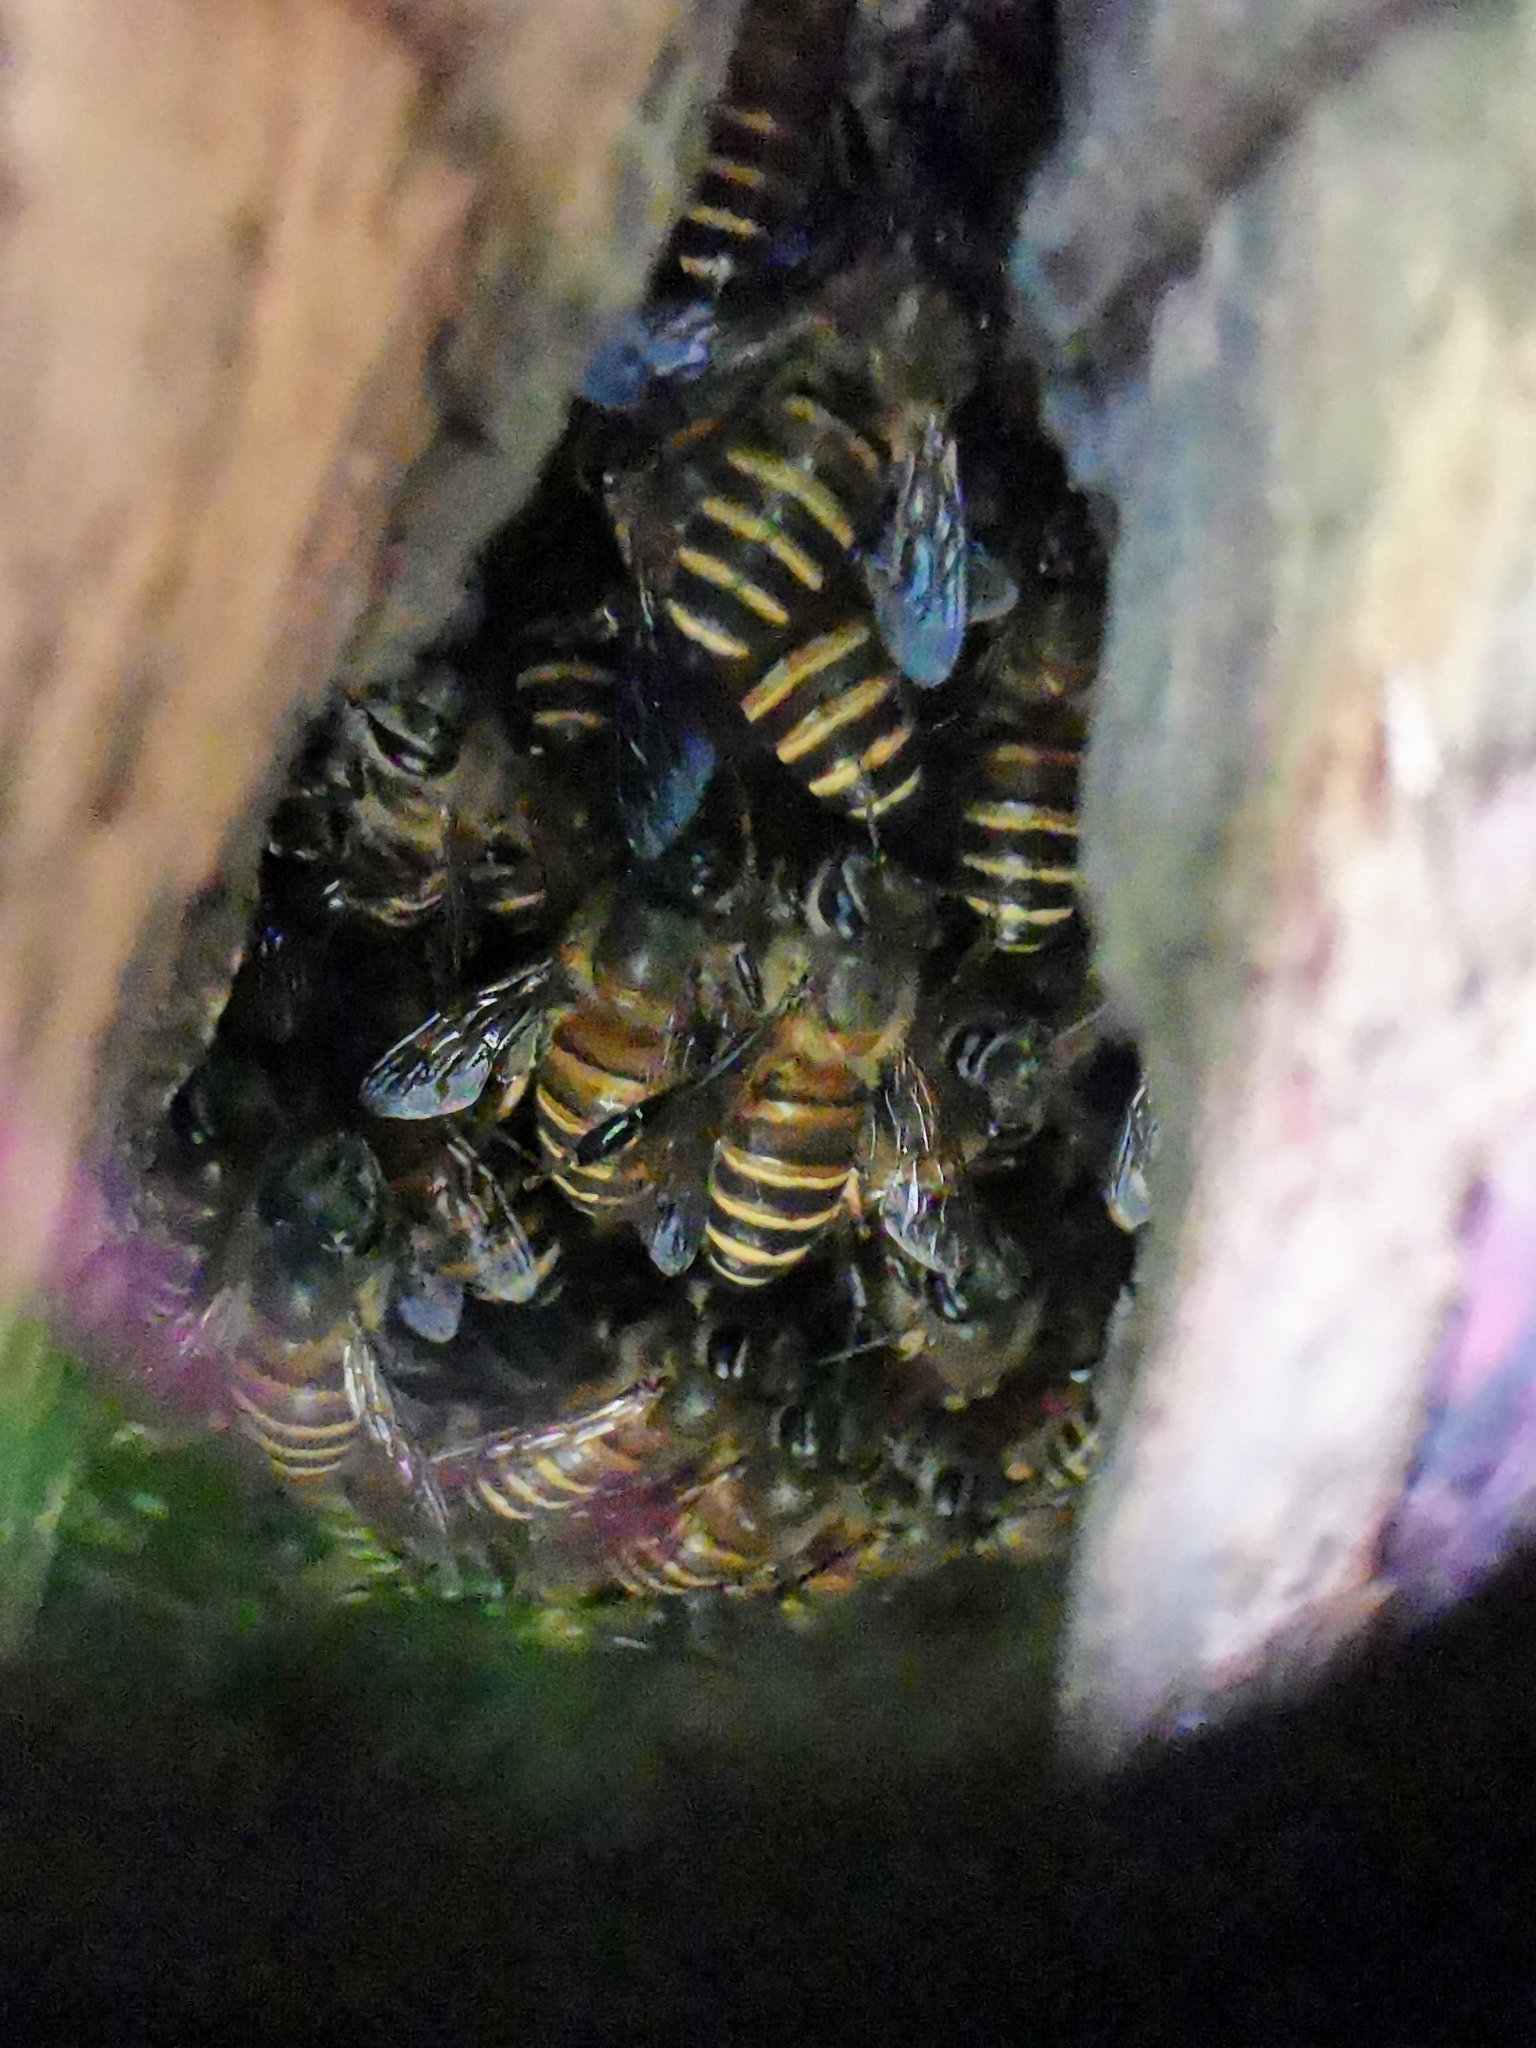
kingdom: Animalia
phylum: Arthropoda
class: Insecta
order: Hymenoptera
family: Apidae
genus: Apis
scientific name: Apis cerana
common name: Honey bee
